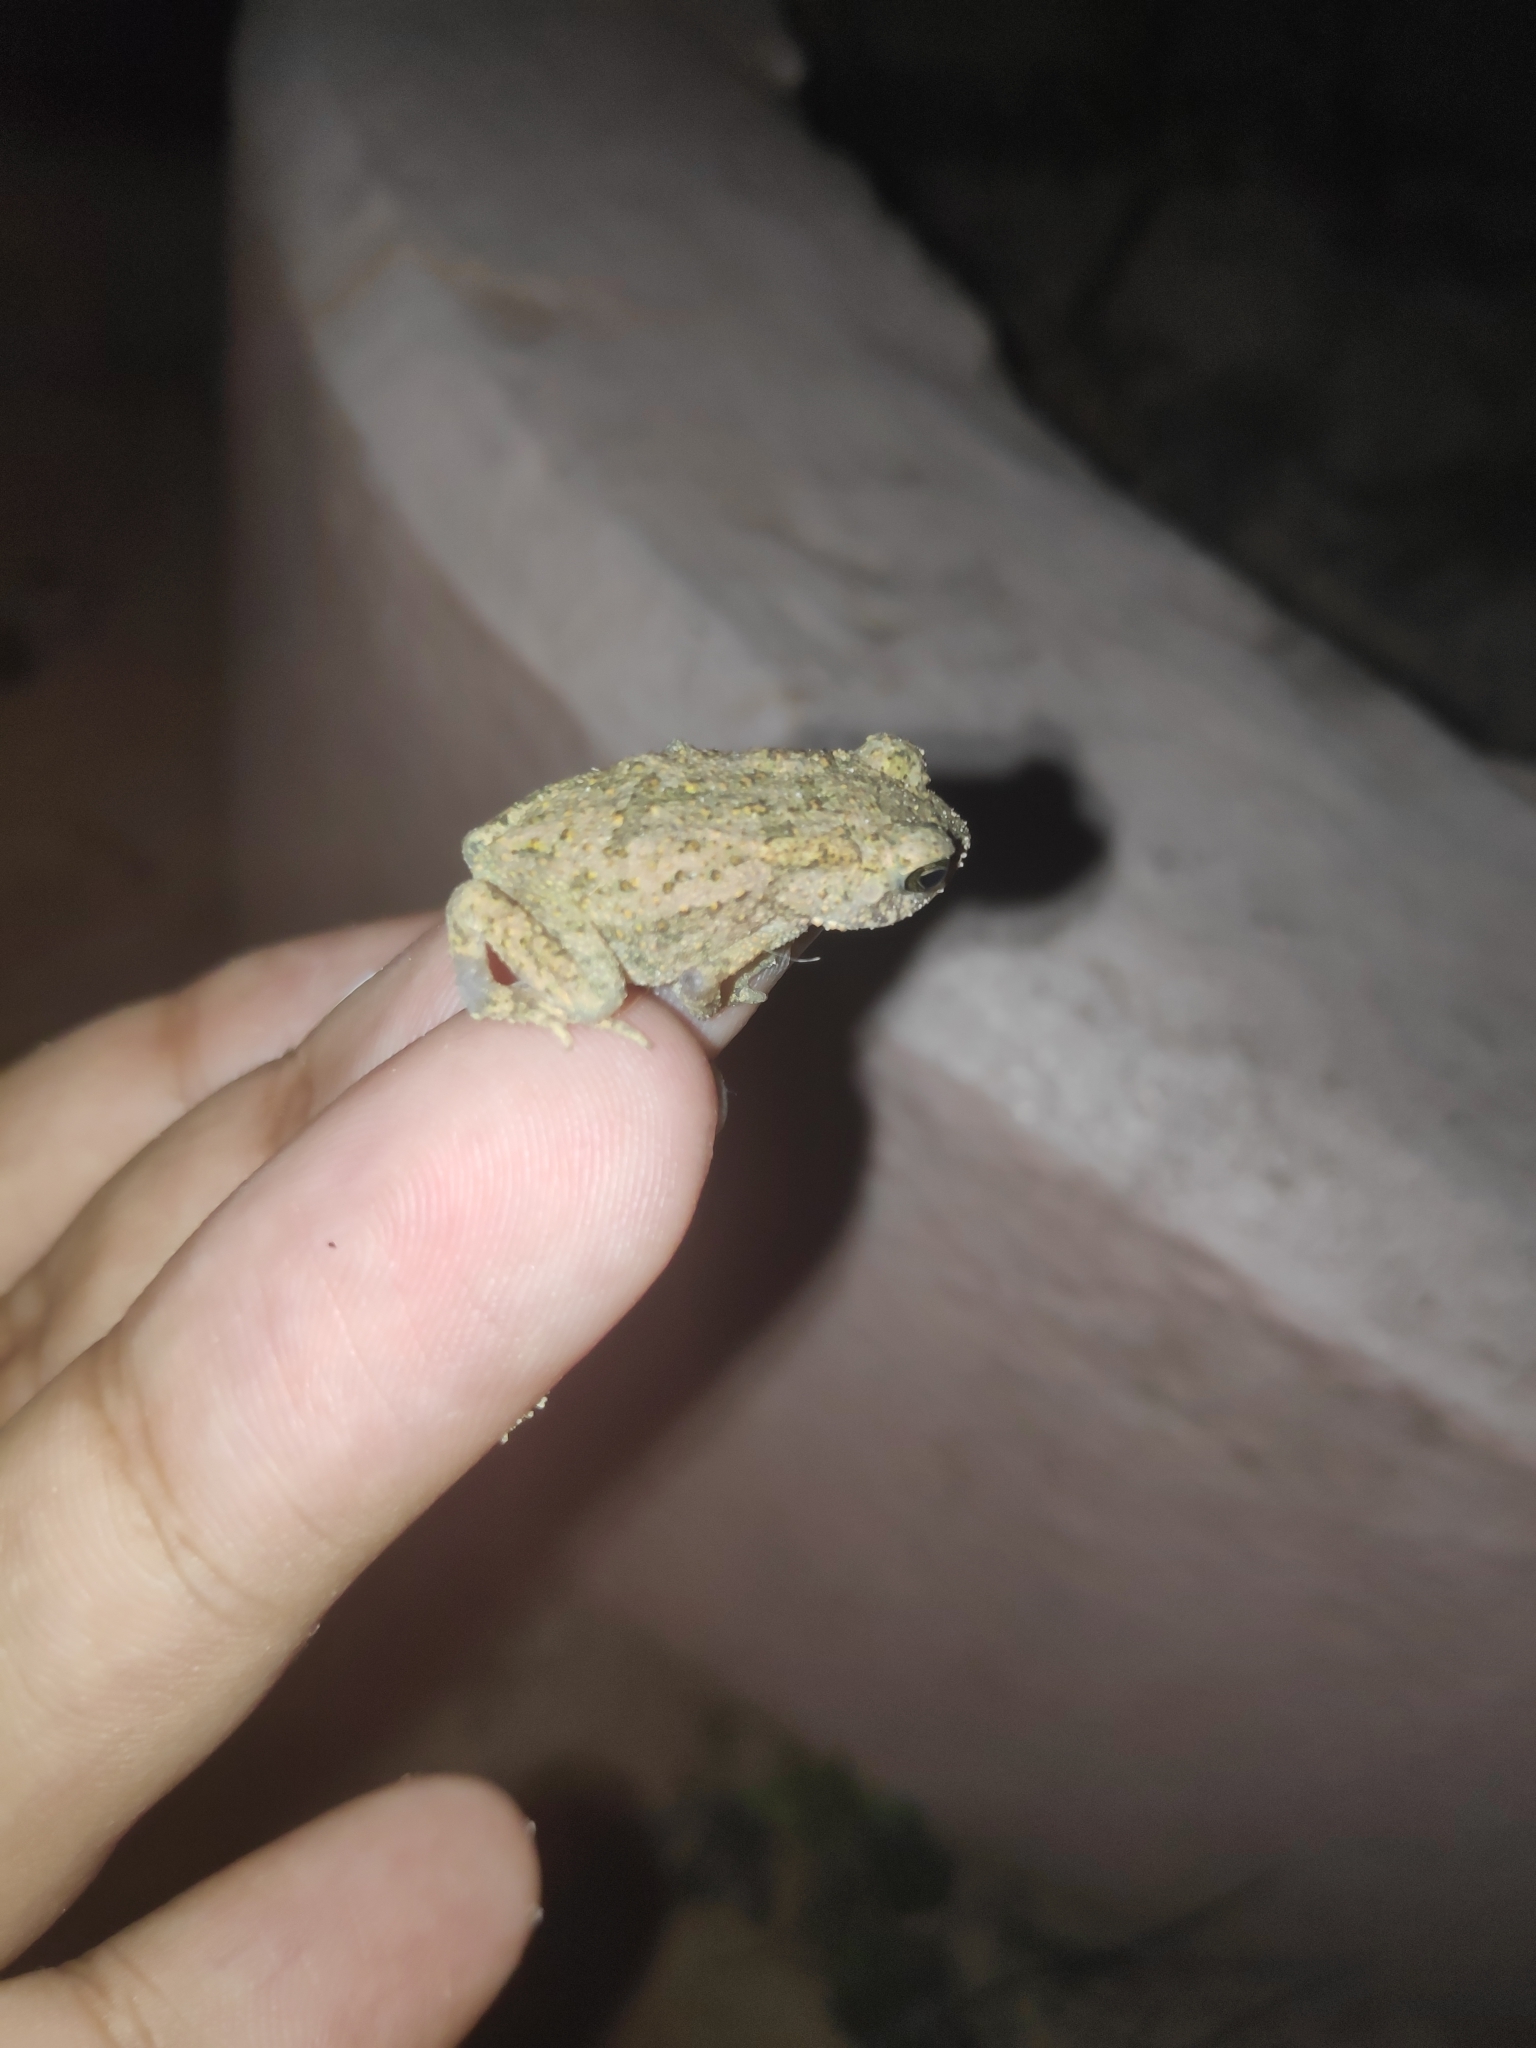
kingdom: Animalia
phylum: Chordata
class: Amphibia
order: Anura
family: Bufonidae
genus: Duttaphrynus
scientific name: Duttaphrynus melanostictus
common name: Common sunda toad
